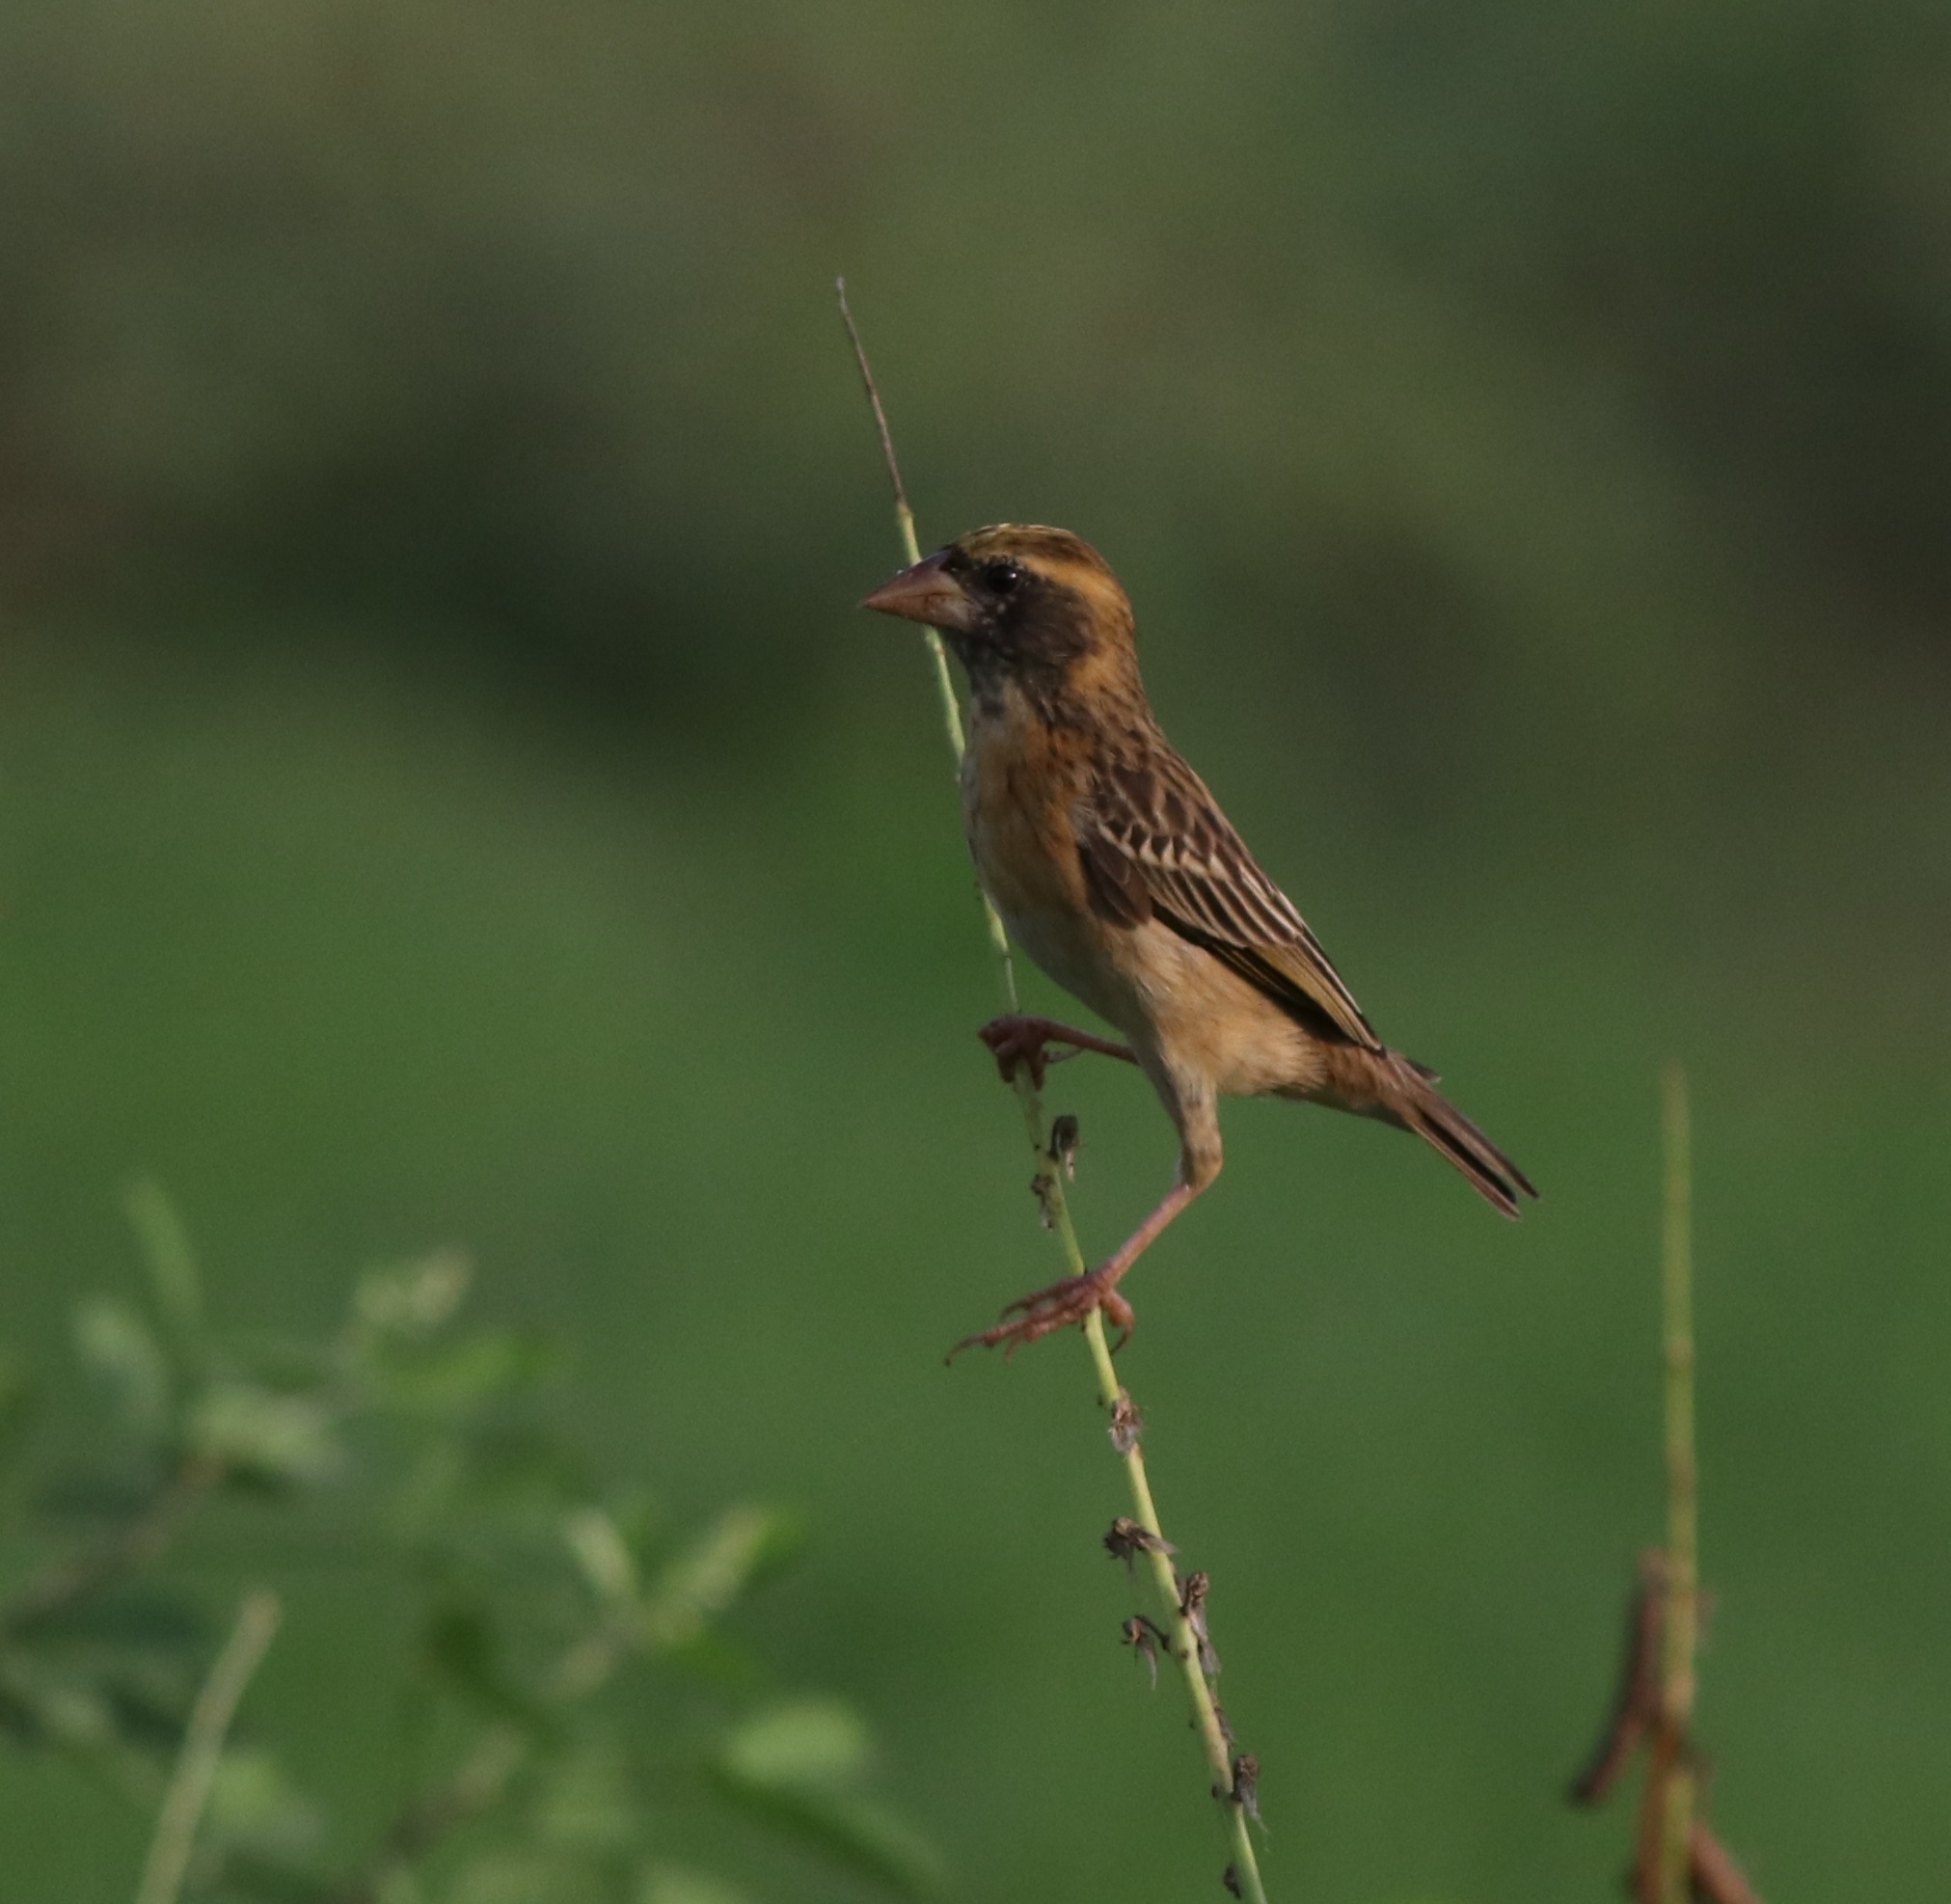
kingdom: Animalia
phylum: Chordata
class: Aves
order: Passeriformes
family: Ploceidae
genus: Ploceus
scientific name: Ploceus philippinus
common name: Baya weaver
